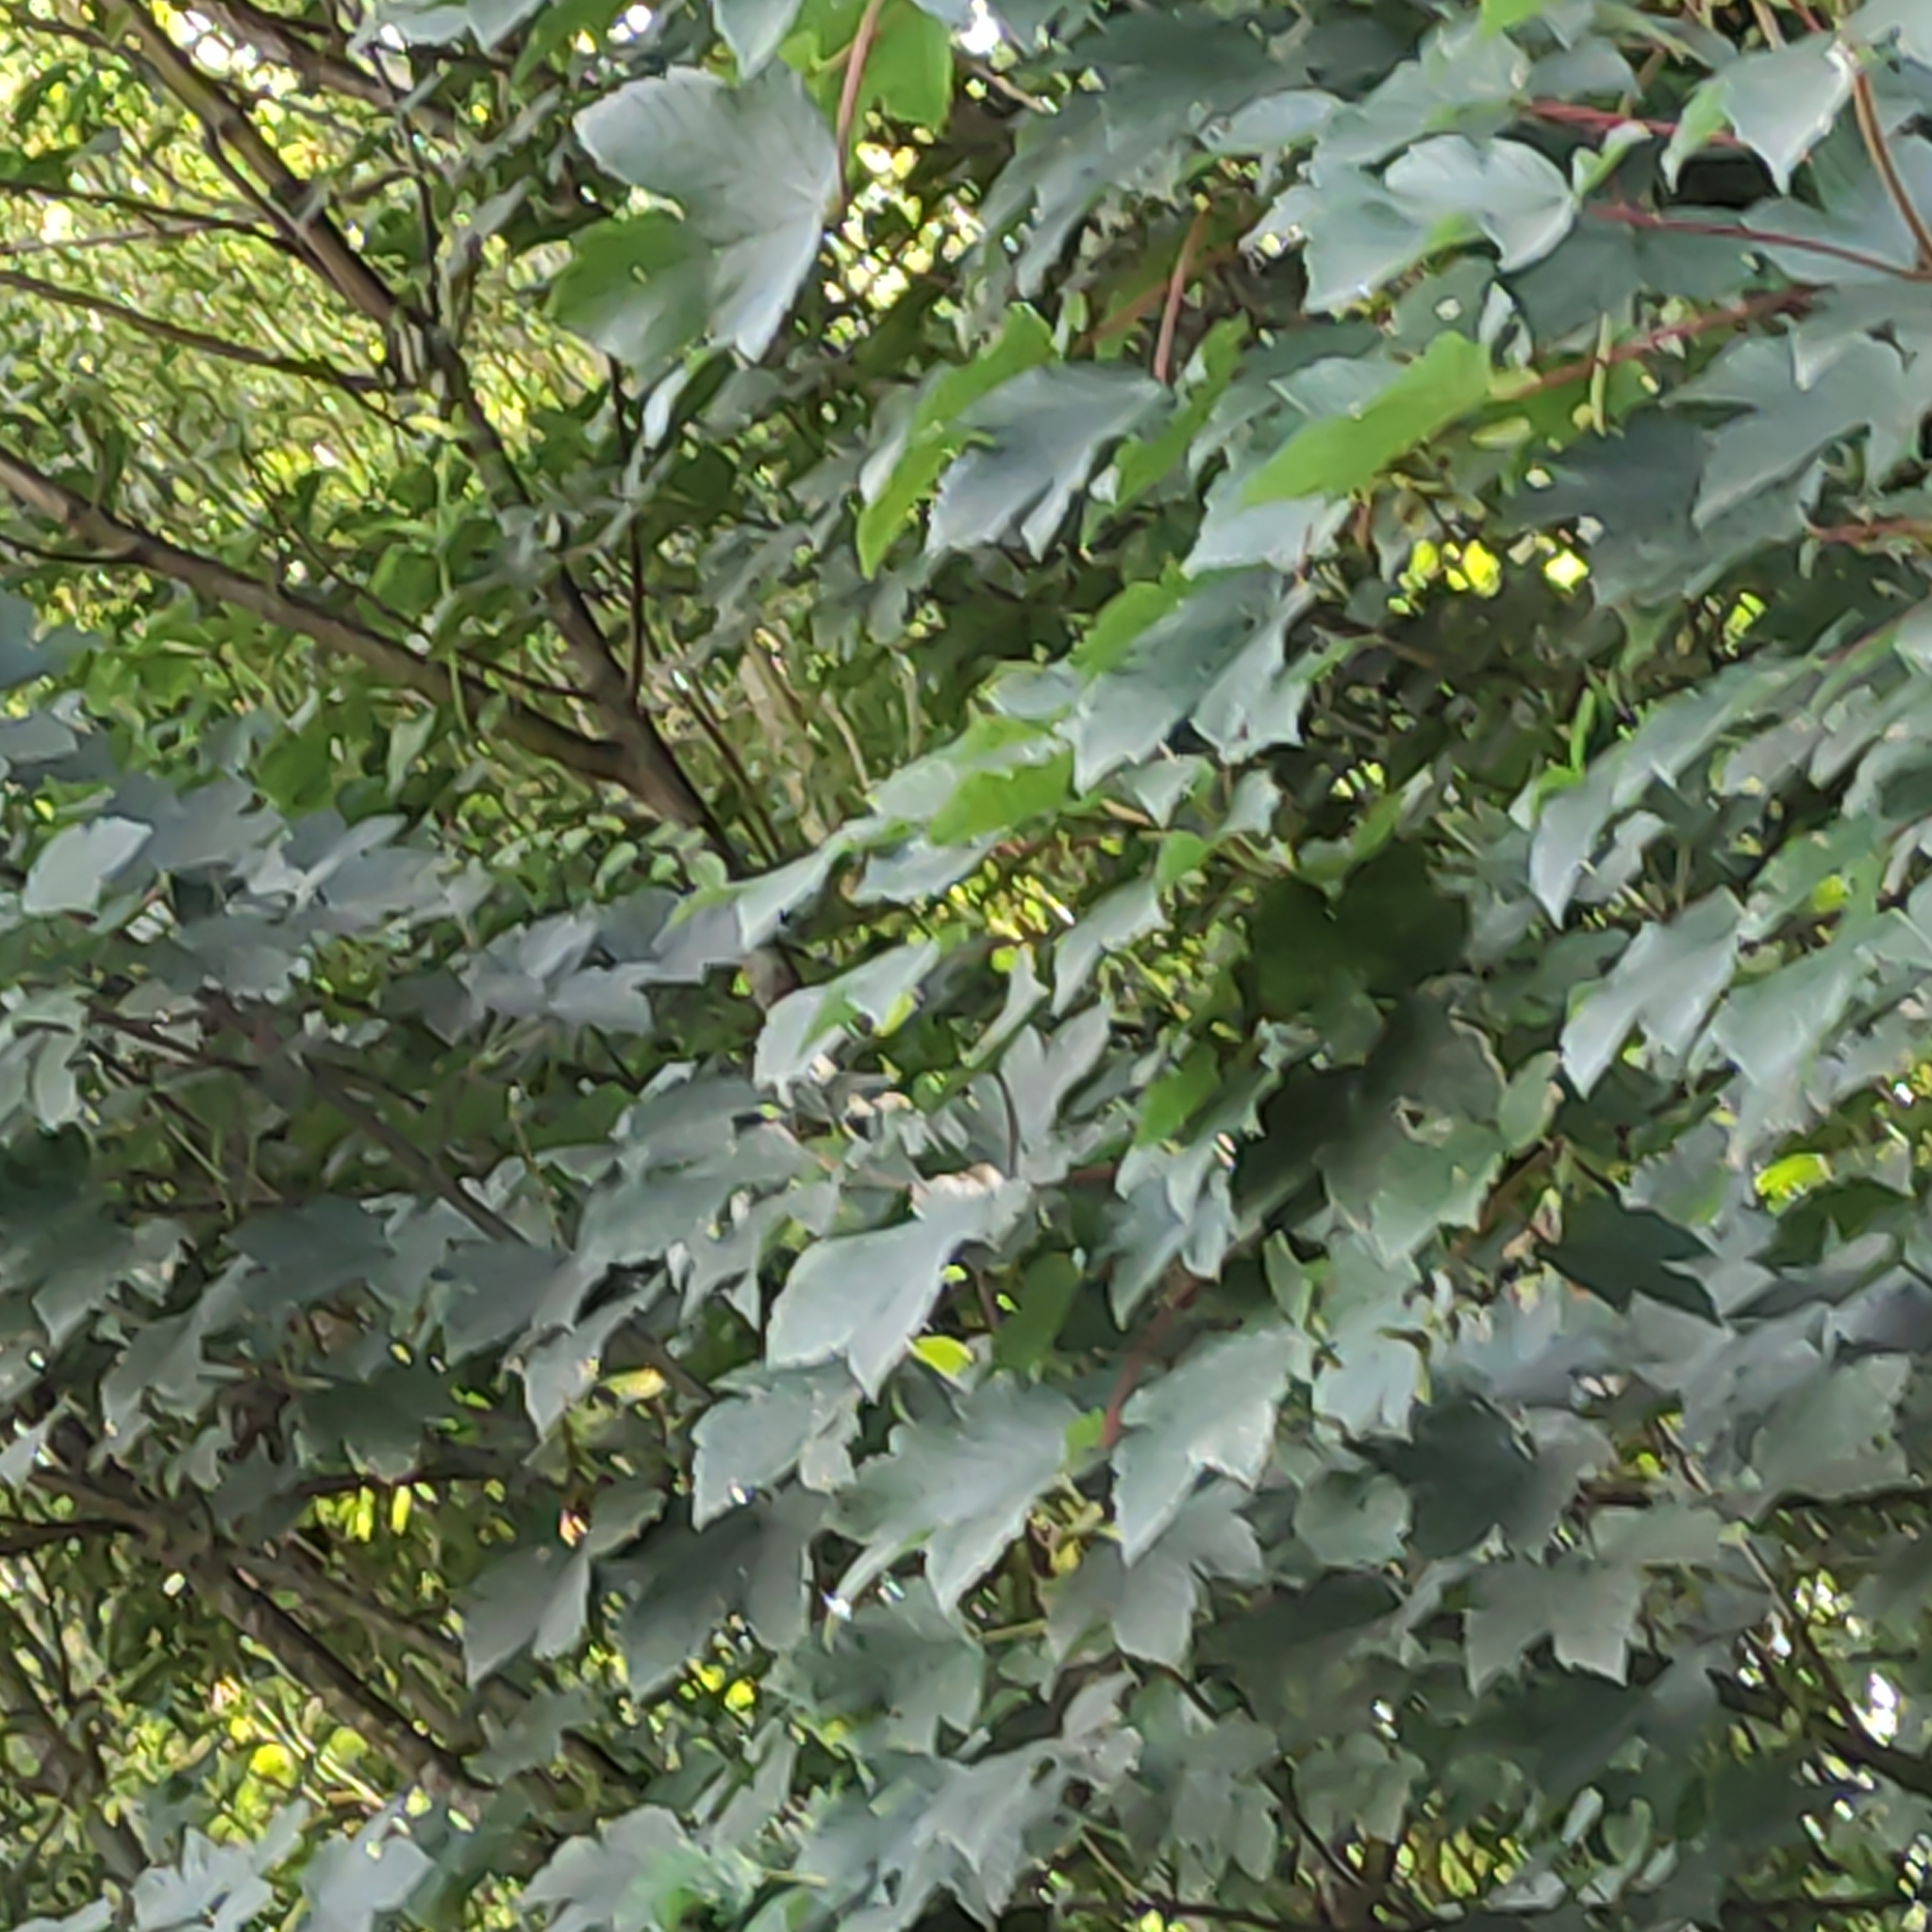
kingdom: Plantae
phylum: Tracheophyta
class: Magnoliopsida
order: Sapindales
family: Sapindaceae
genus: Acer
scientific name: Acer pseudoplatanus
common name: Sycamore
